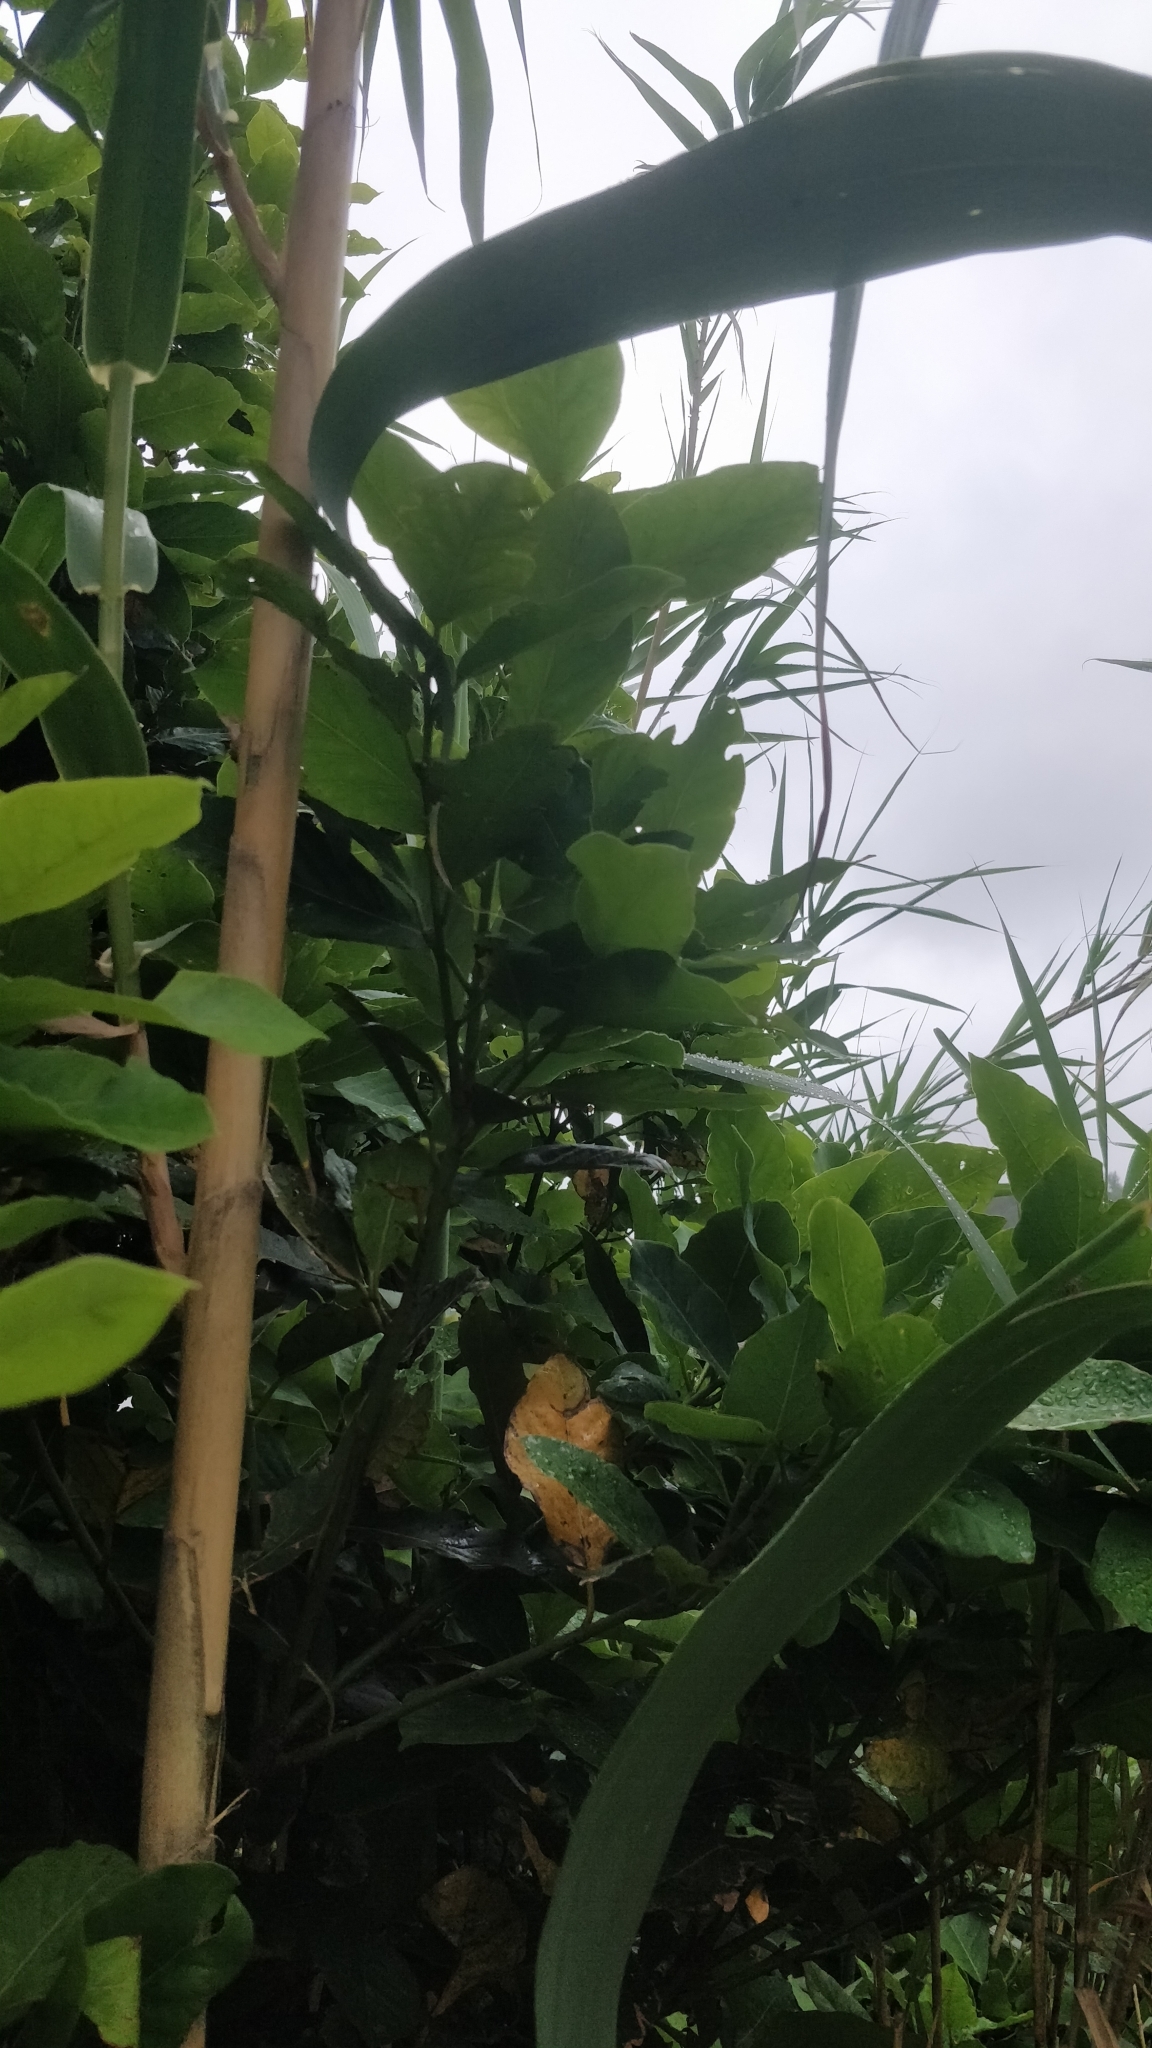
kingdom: Plantae
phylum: Tracheophyta
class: Magnoliopsida
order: Laurales
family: Lauraceae
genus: Laurus
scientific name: Laurus novocanariensis
